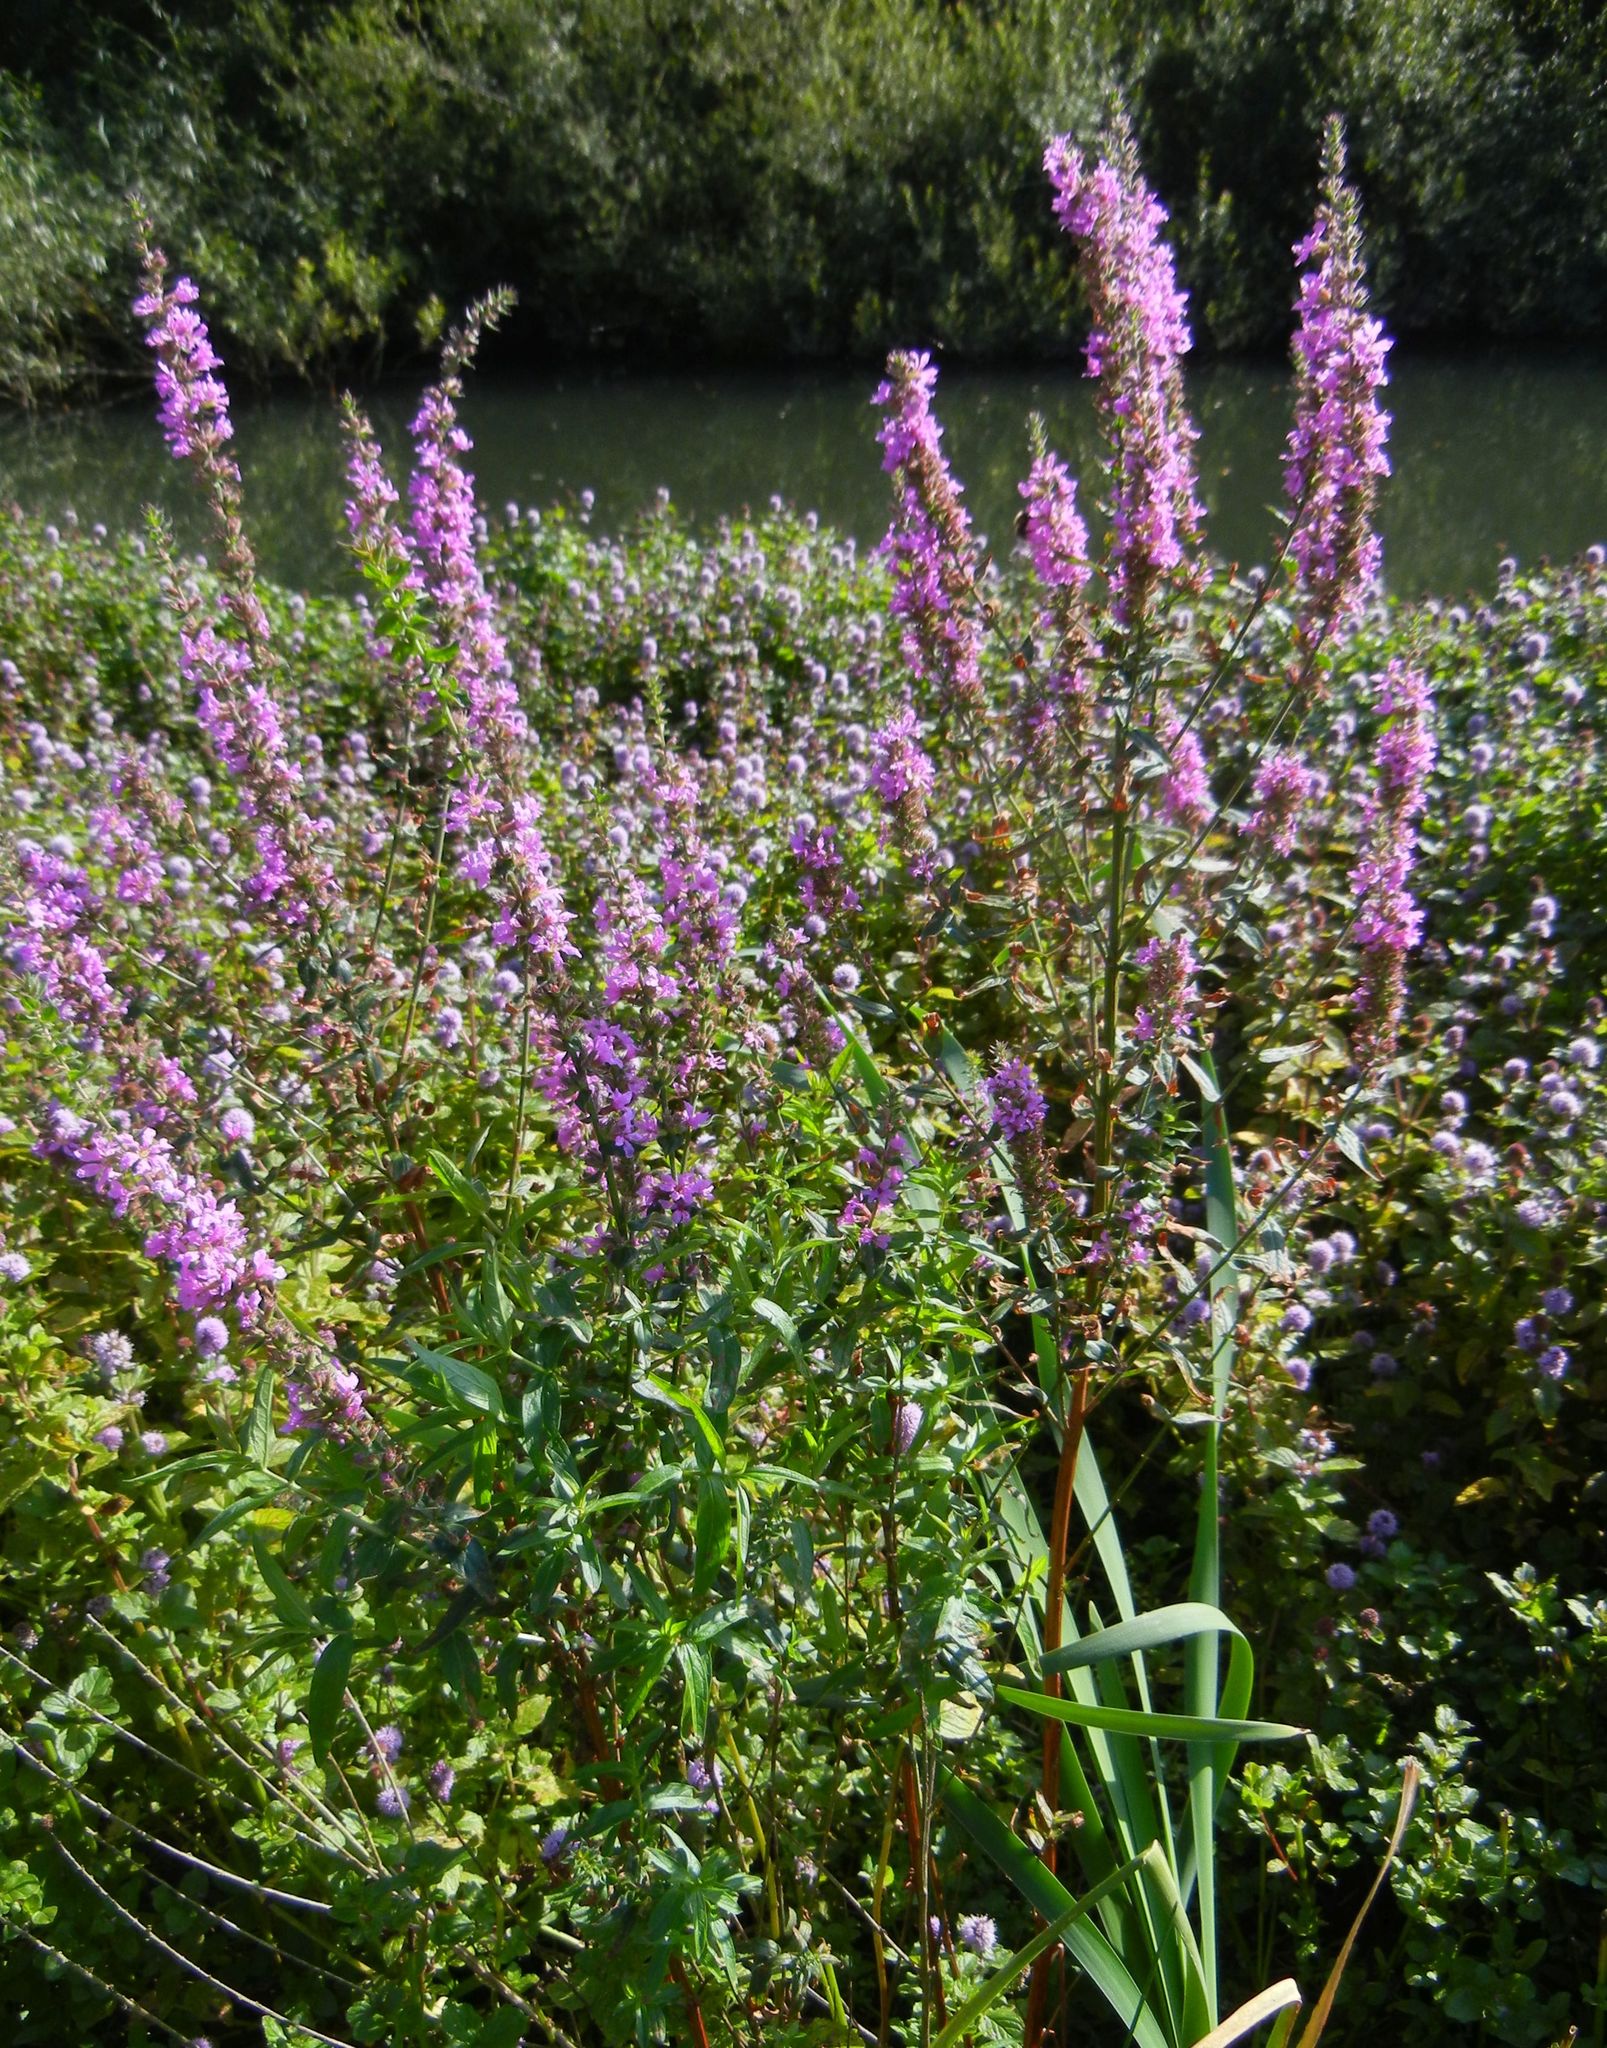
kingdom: Plantae
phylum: Tracheophyta
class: Magnoliopsida
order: Myrtales
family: Lythraceae
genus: Lythrum
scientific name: Lythrum salicaria
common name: Purple loosestrife
